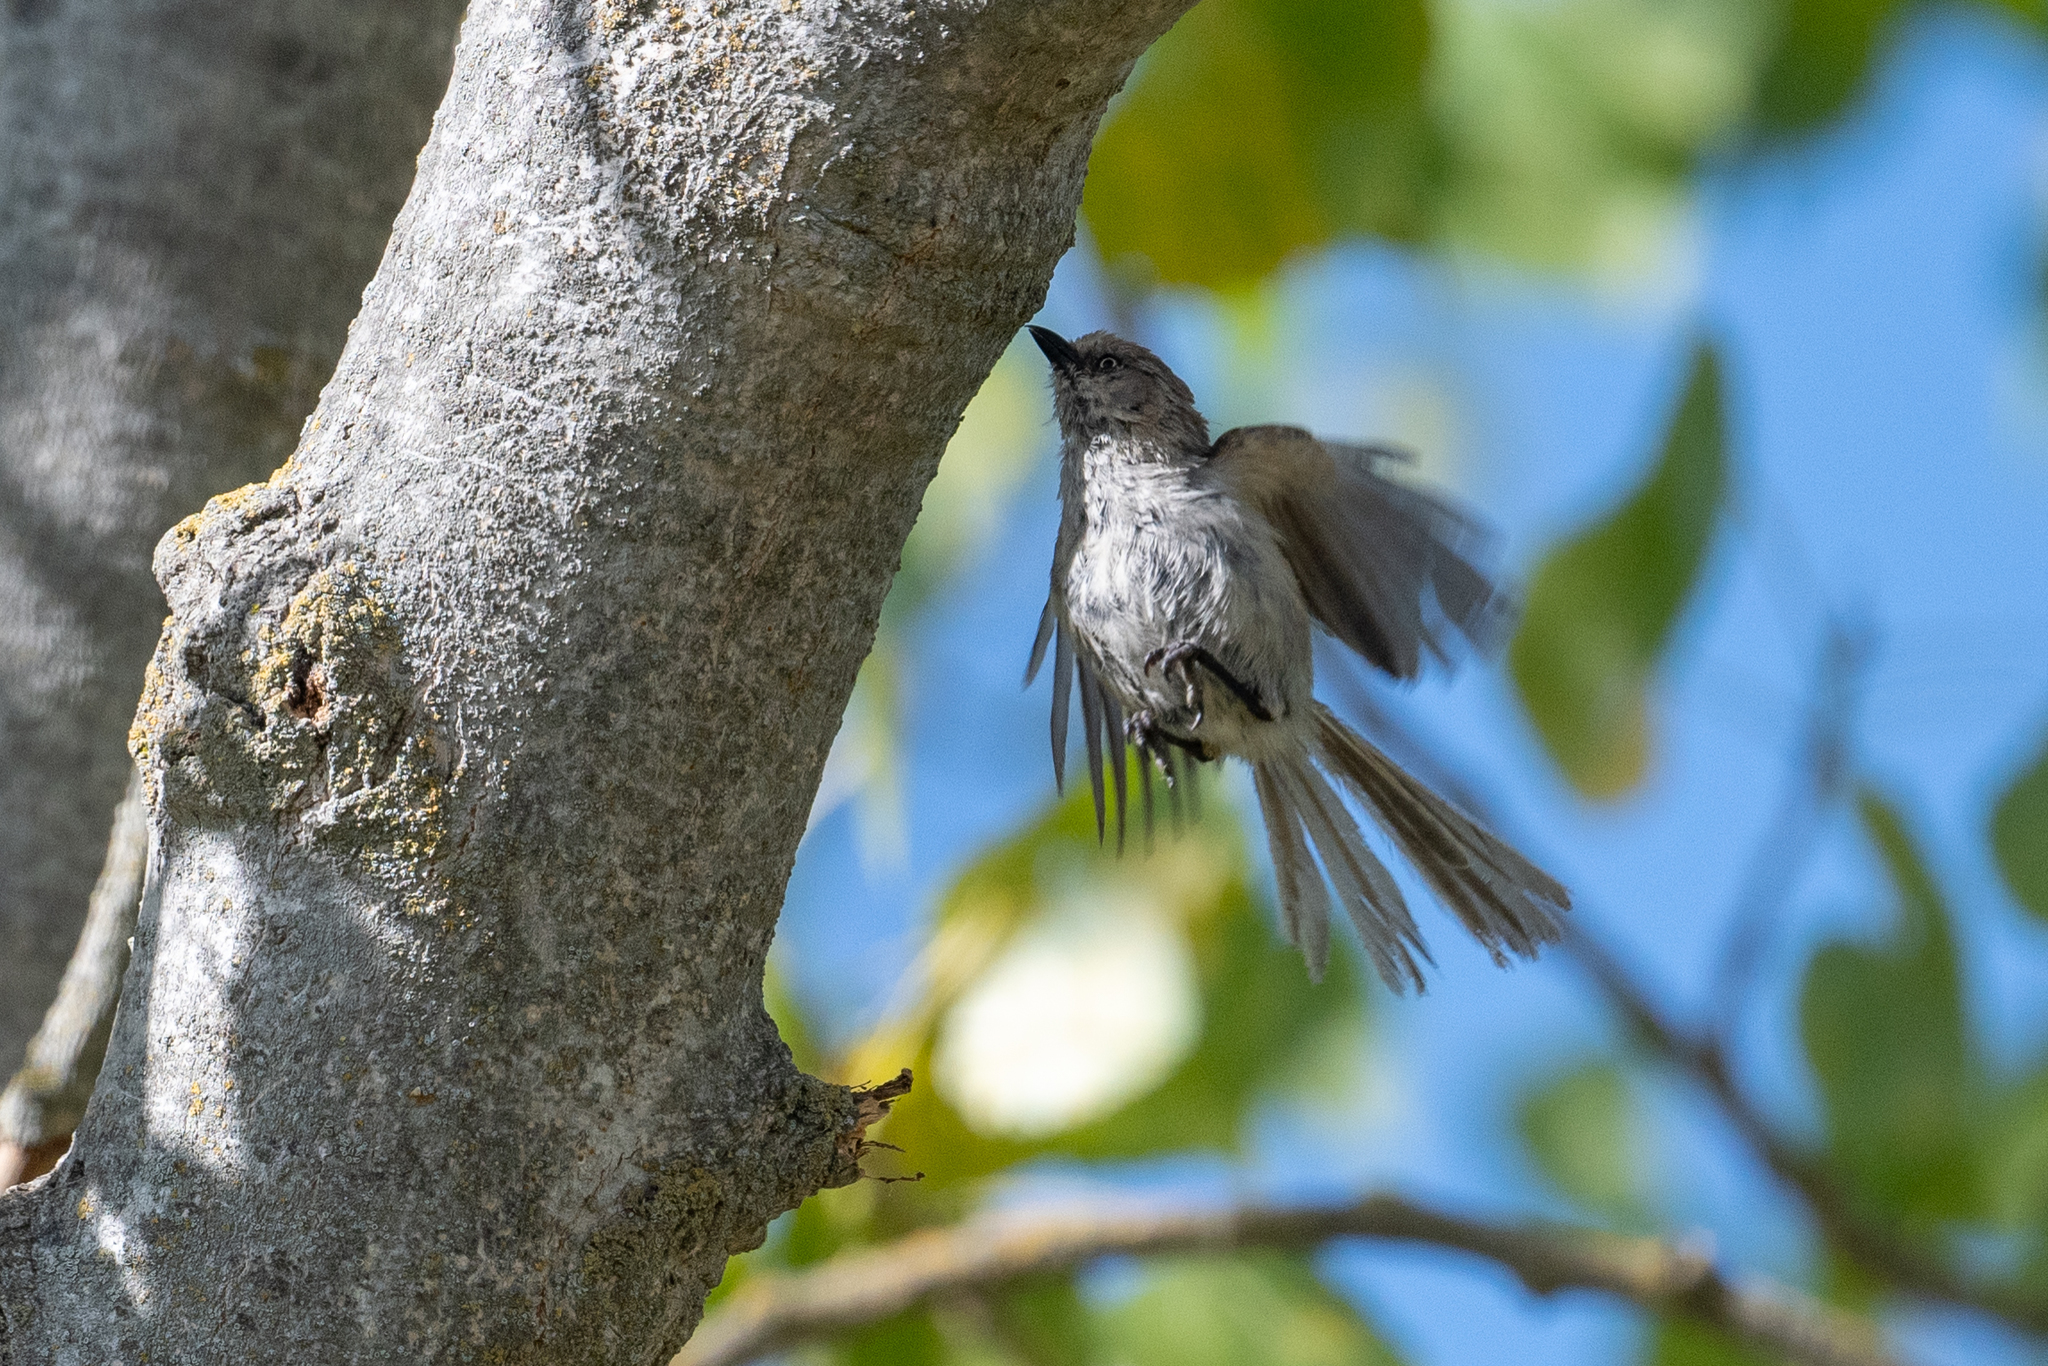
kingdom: Animalia
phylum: Chordata
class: Aves
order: Passeriformes
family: Aegithalidae
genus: Psaltriparus
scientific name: Psaltriparus minimus
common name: American bushtit
